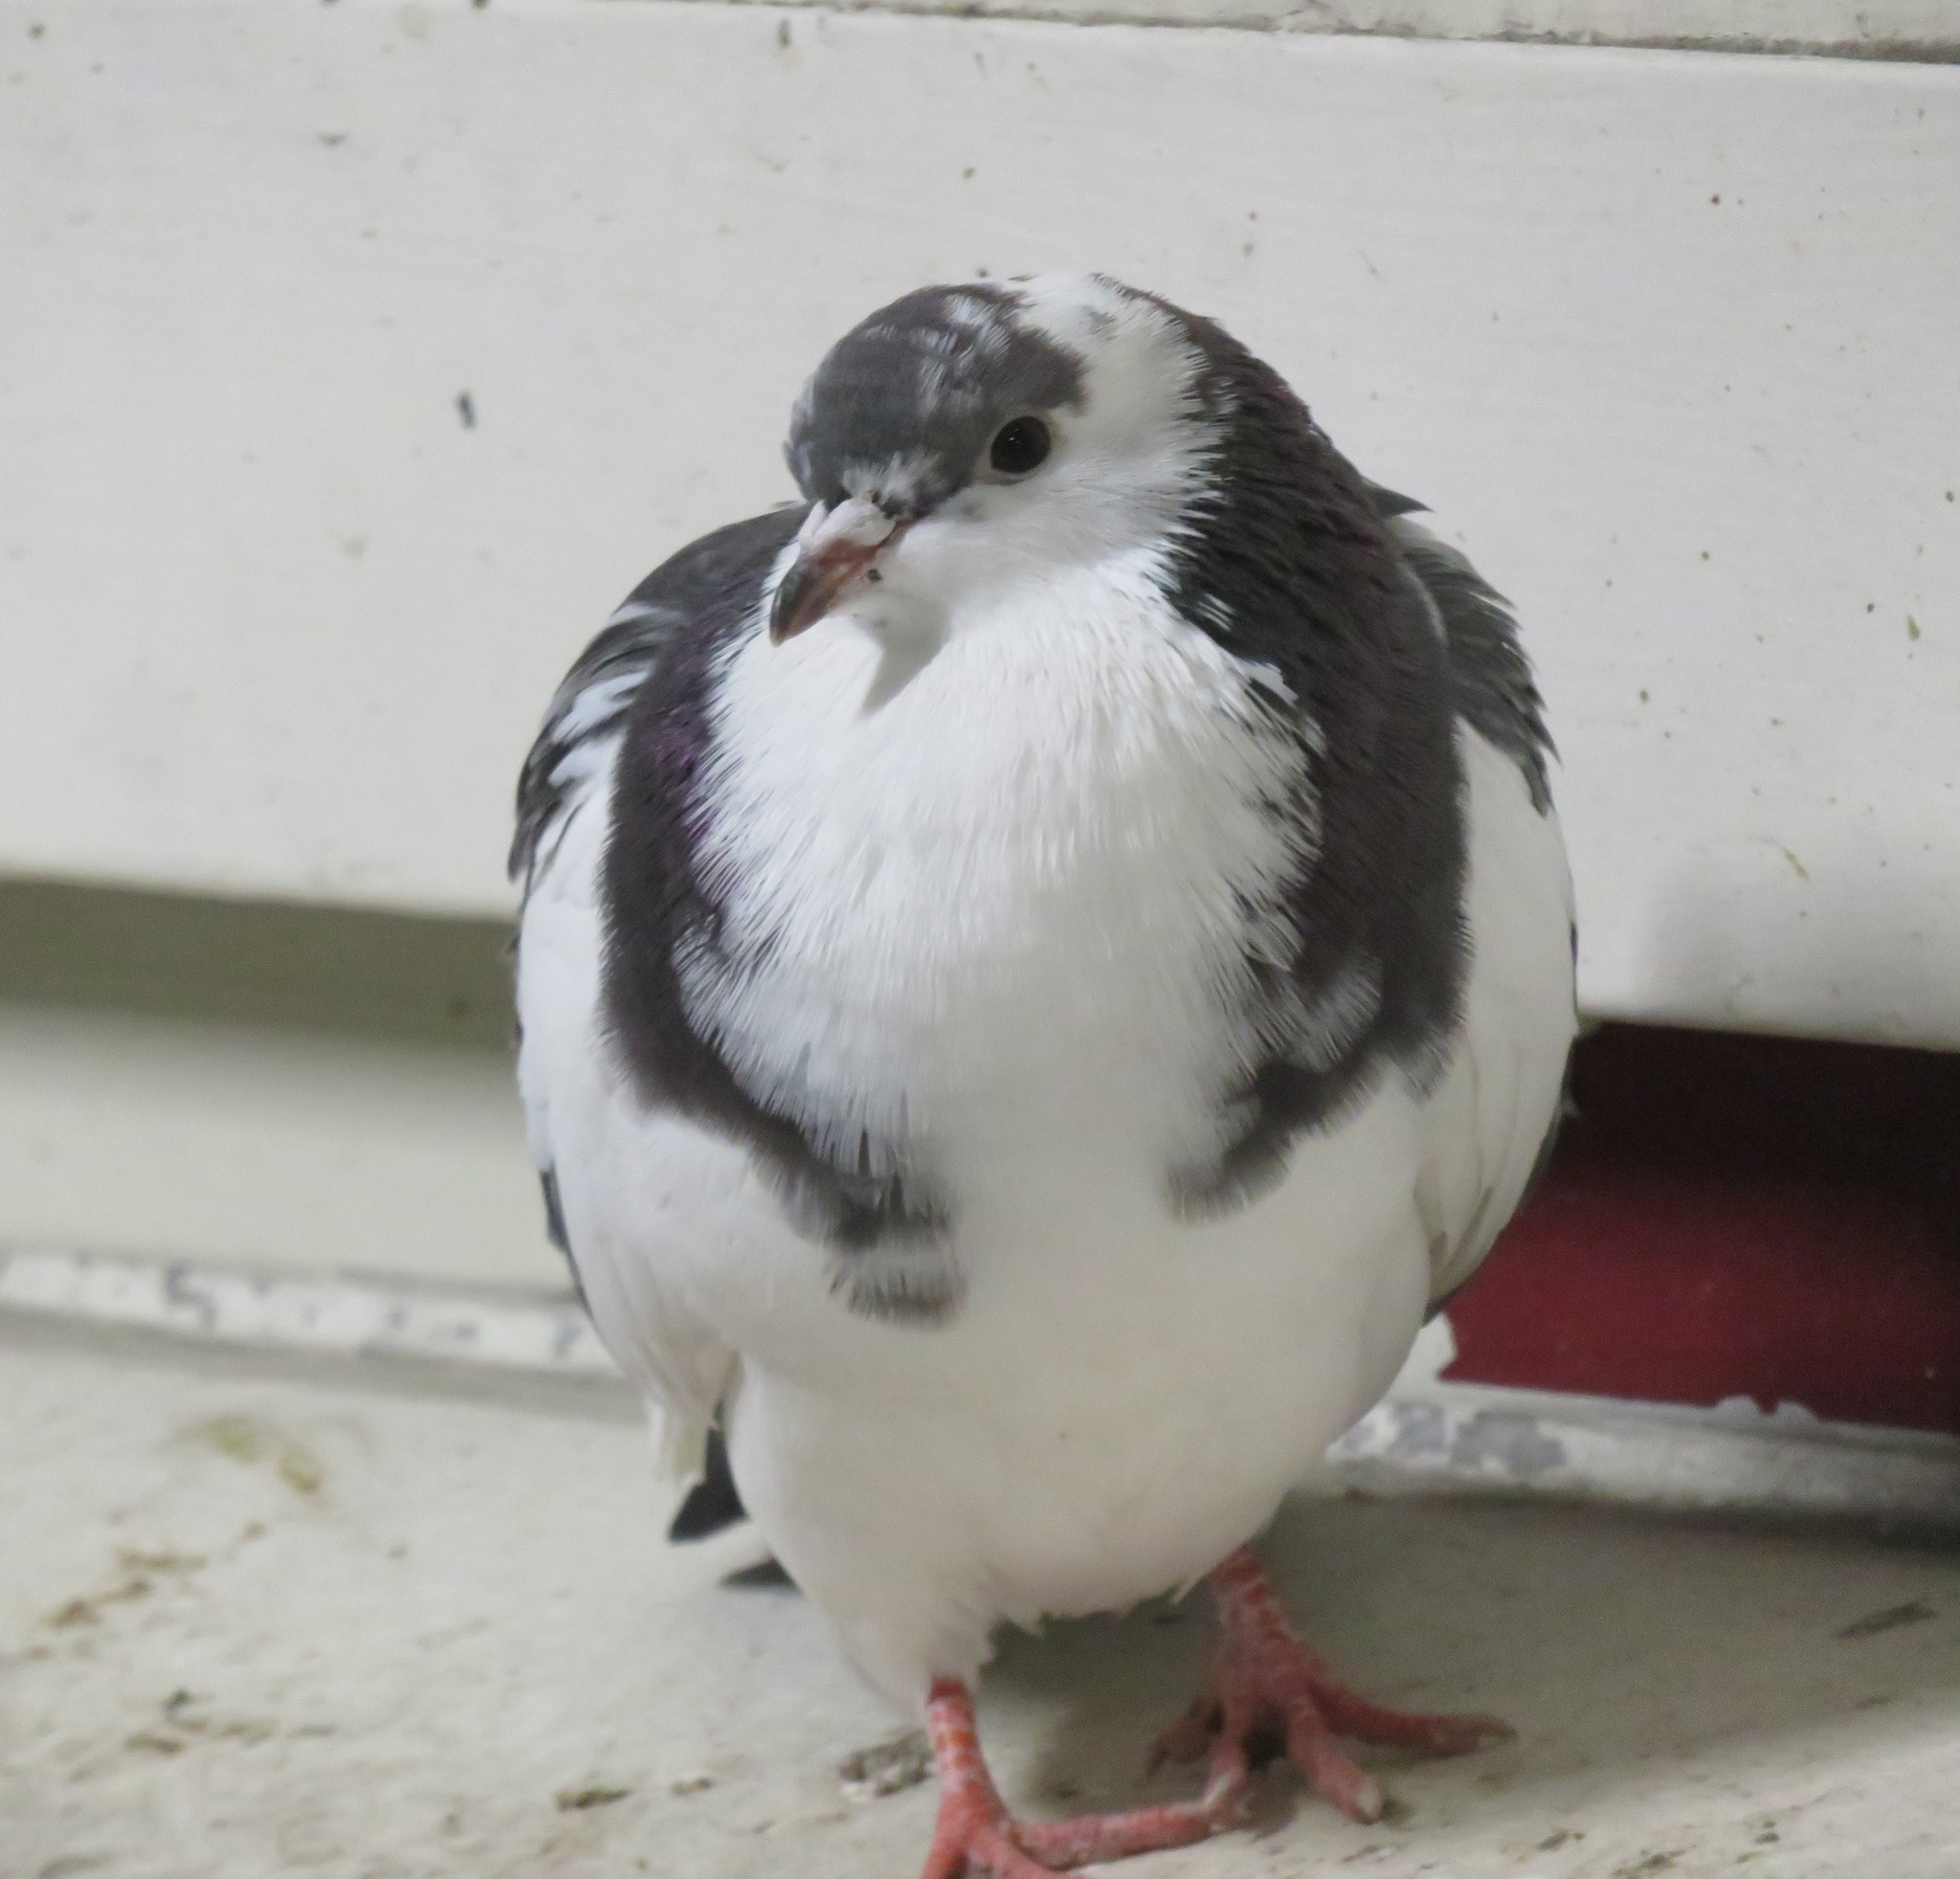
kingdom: Animalia
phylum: Chordata
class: Aves
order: Columbiformes
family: Columbidae
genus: Columba
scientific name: Columba livia
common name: Rock pigeon
